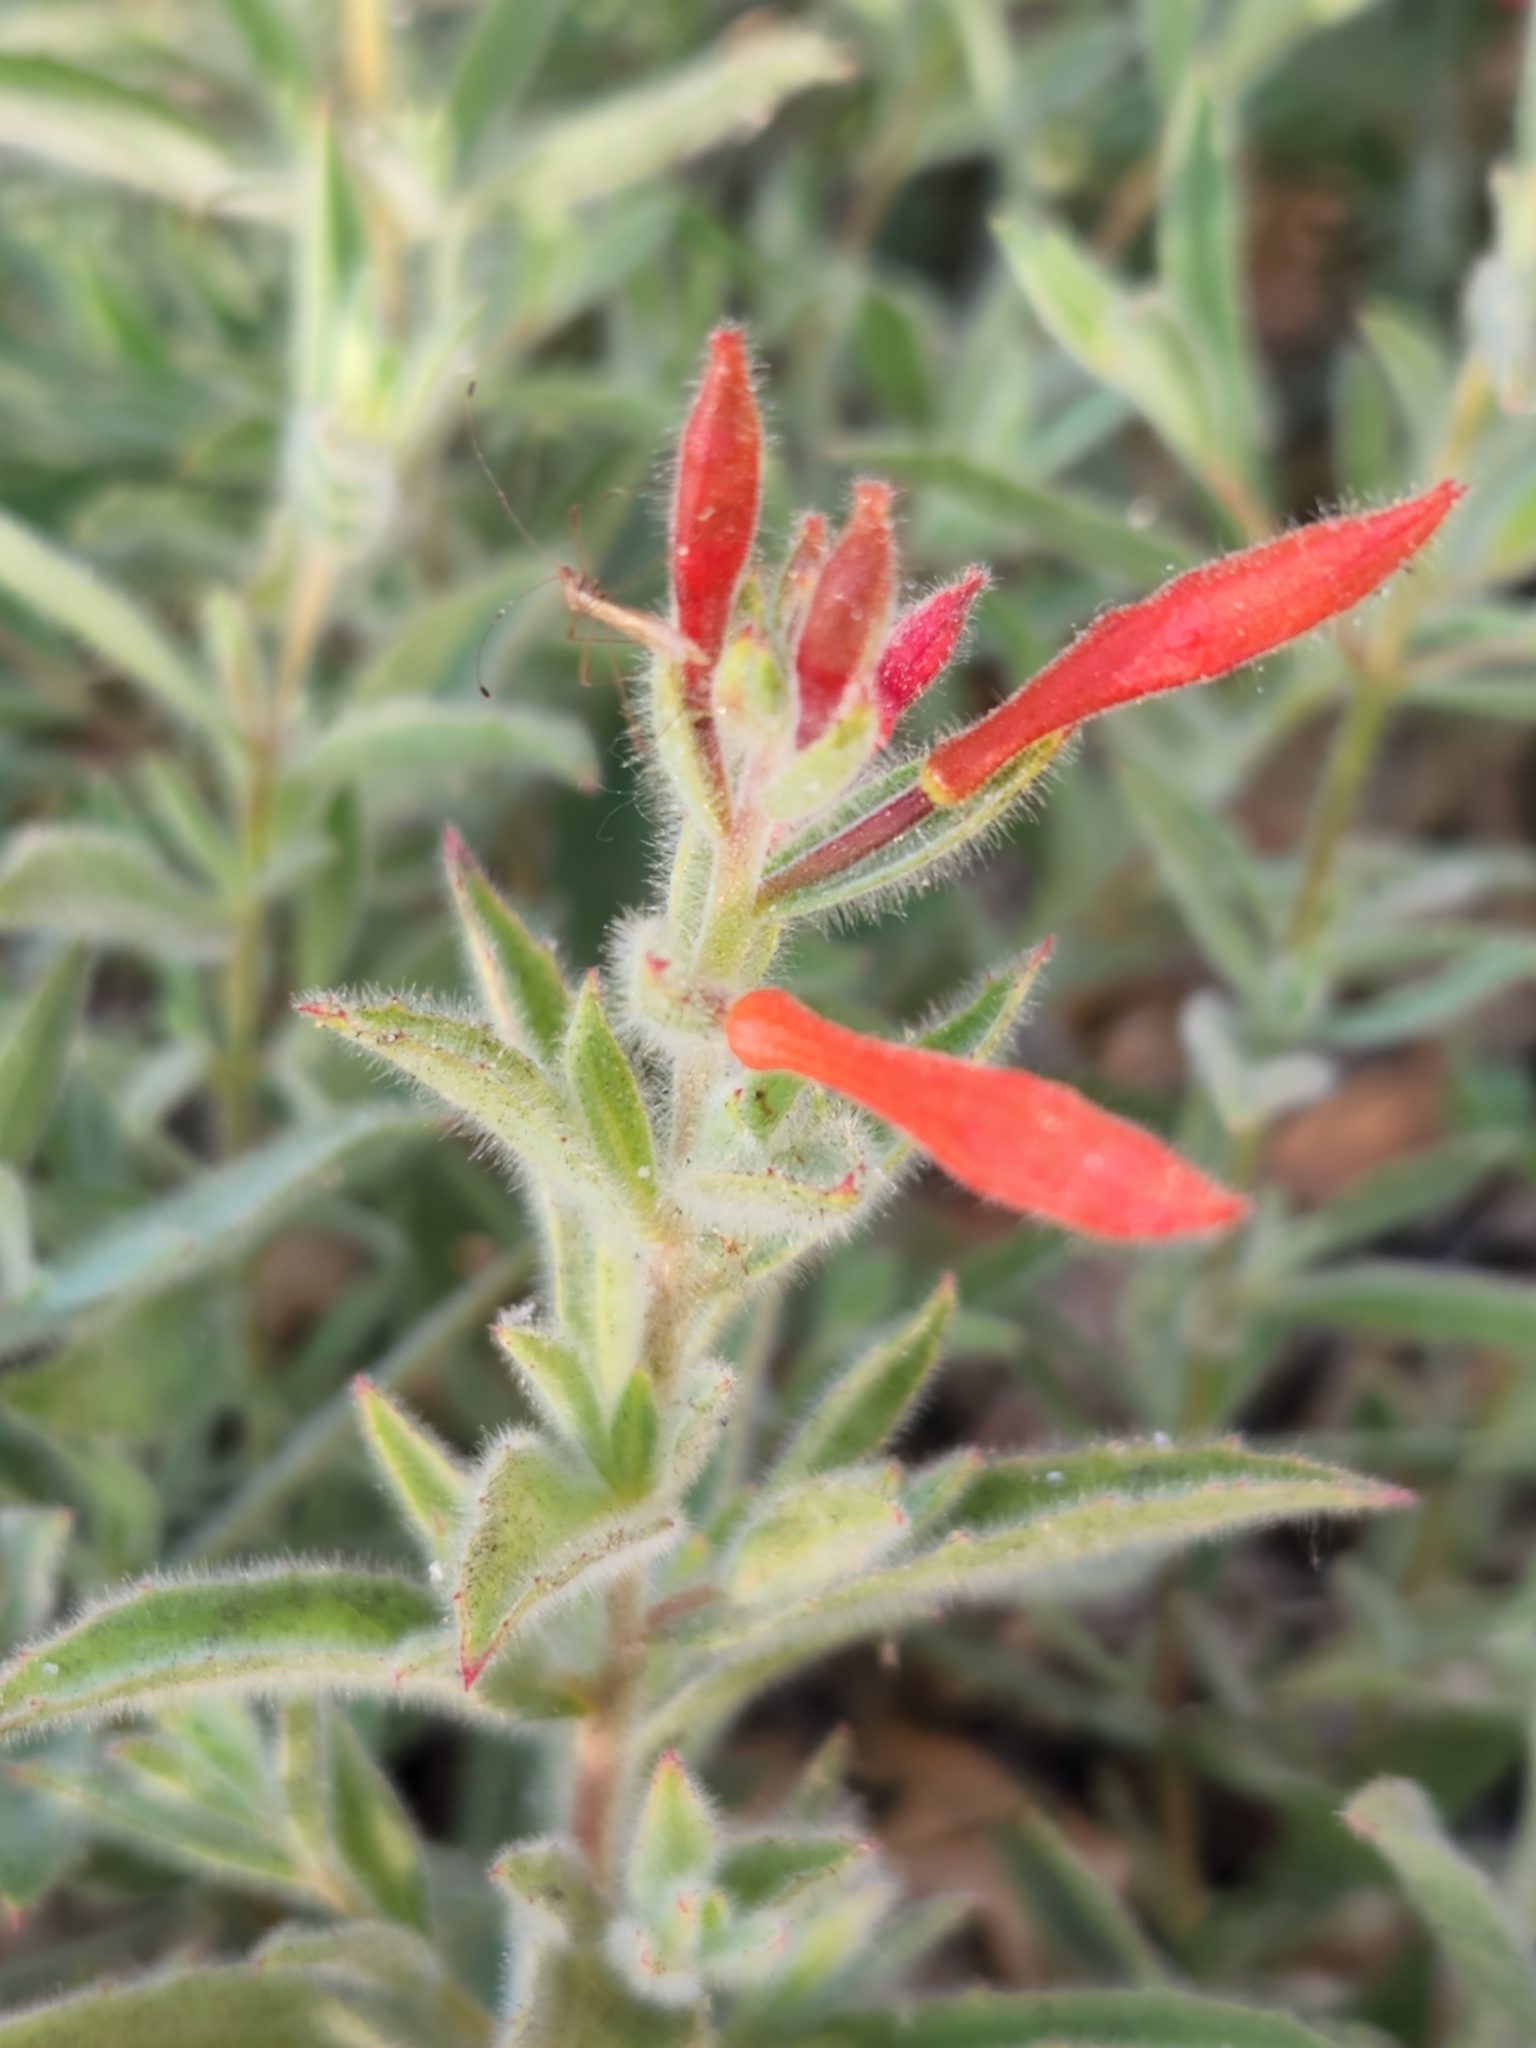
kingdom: Plantae
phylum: Tracheophyta
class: Magnoliopsida
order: Myrtales
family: Onagraceae
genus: Epilobium
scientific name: Epilobium canum
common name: California-fuchsia
